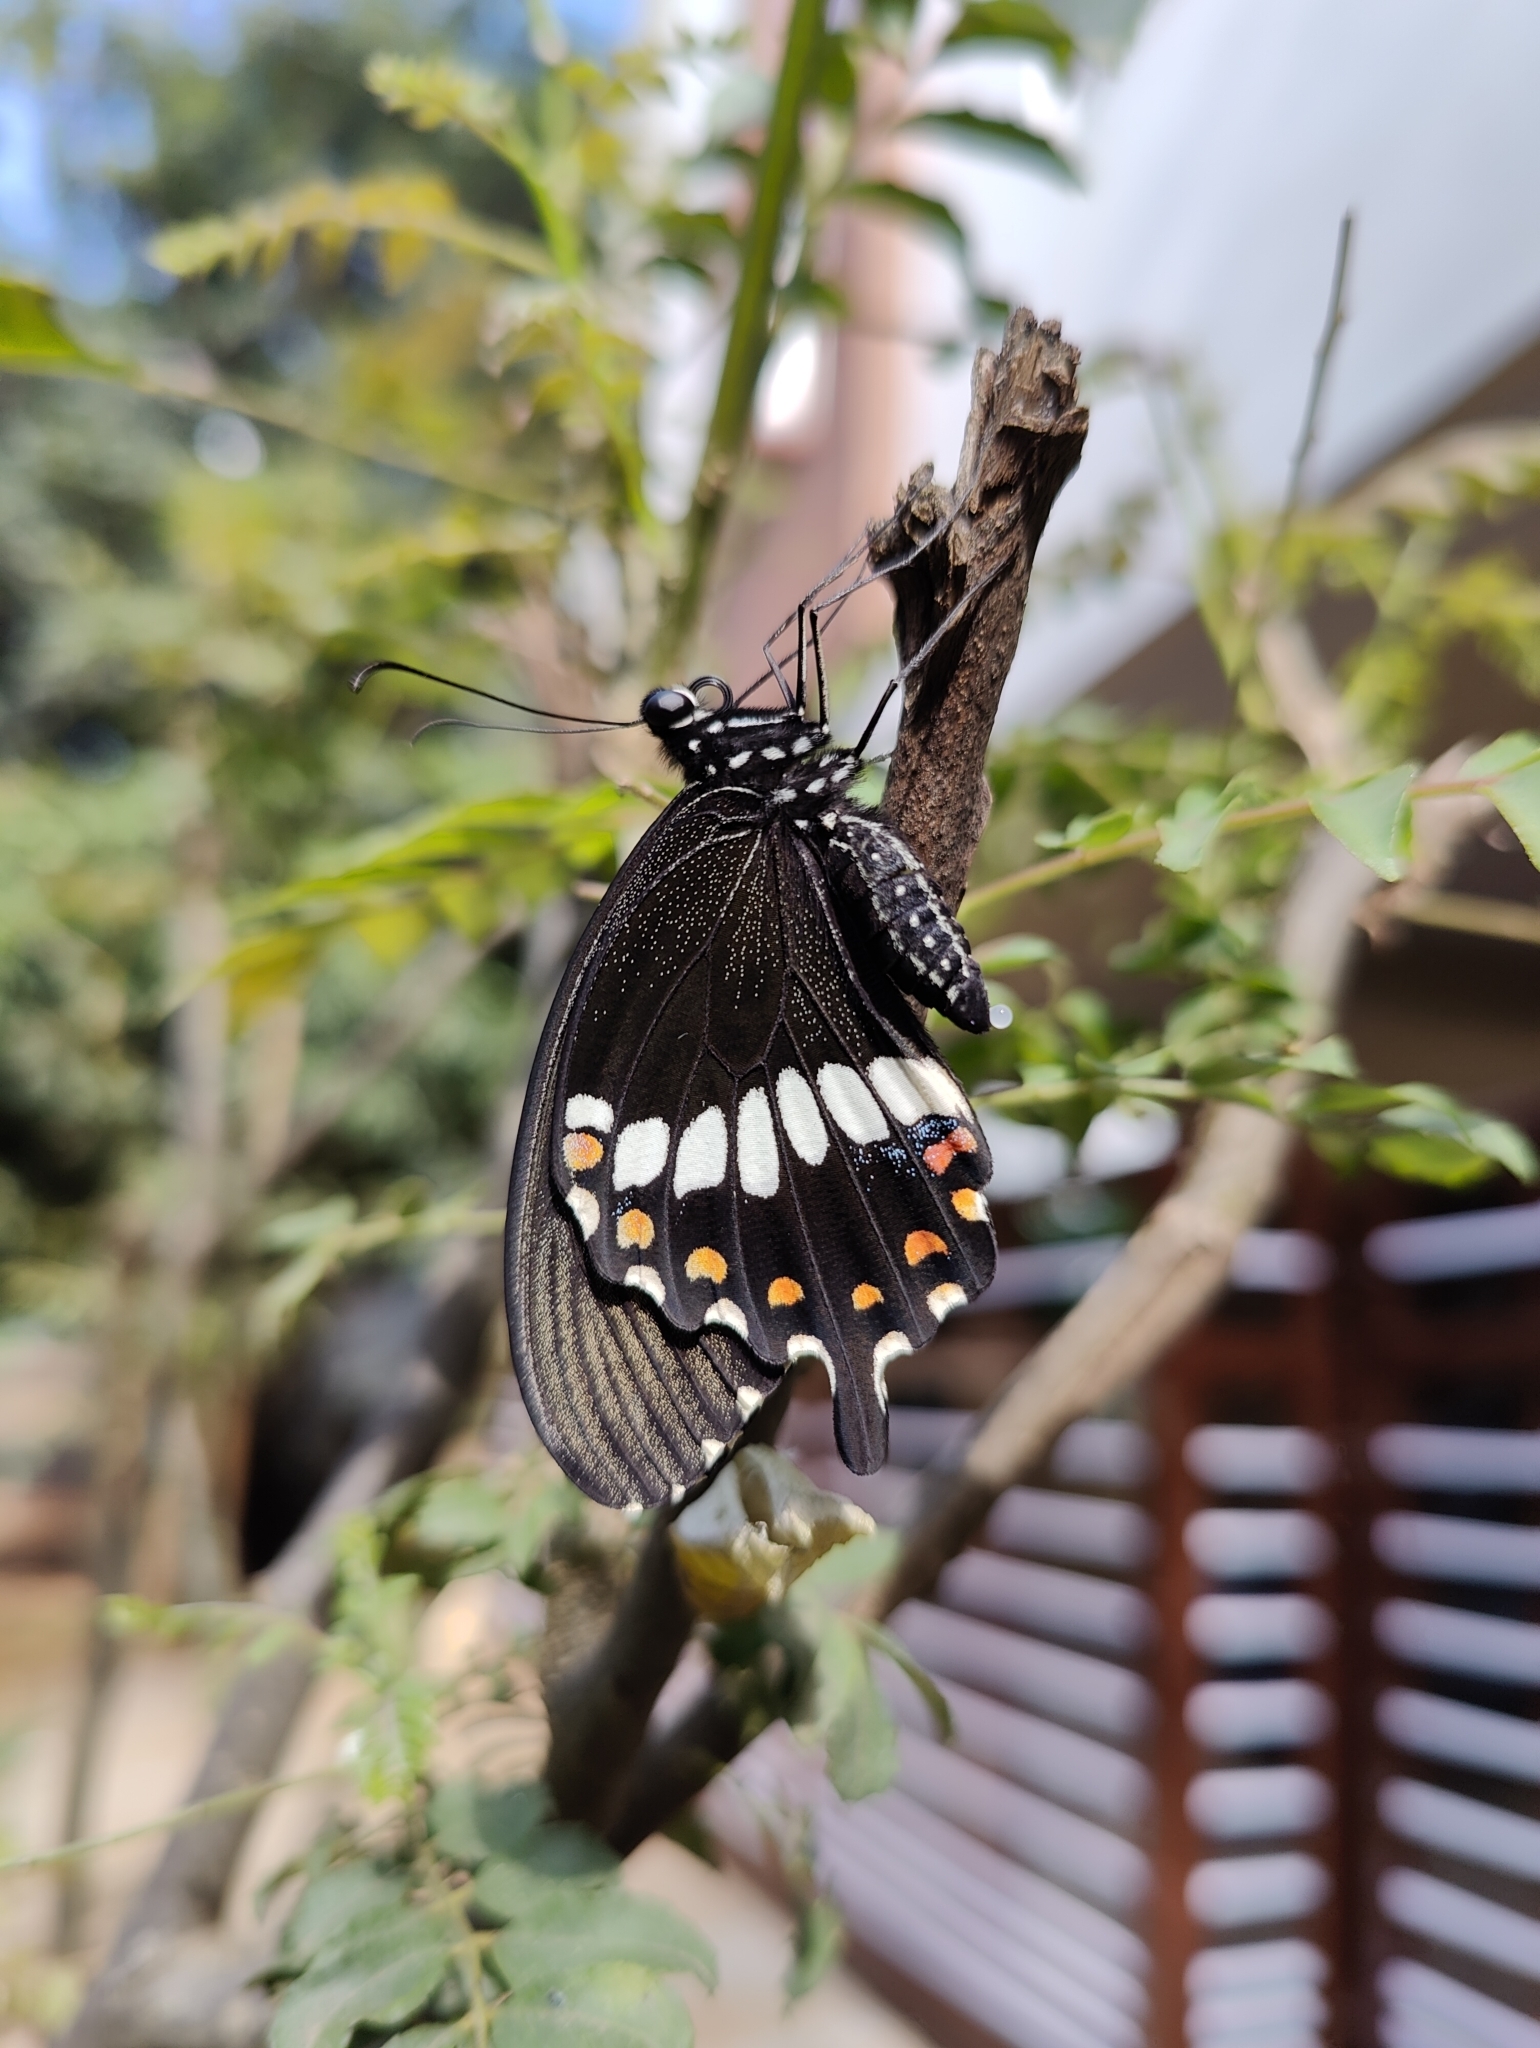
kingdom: Animalia
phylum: Arthropoda
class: Insecta
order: Lepidoptera
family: Papilionidae
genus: Papilio
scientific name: Papilio polytes
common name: Common mormon
